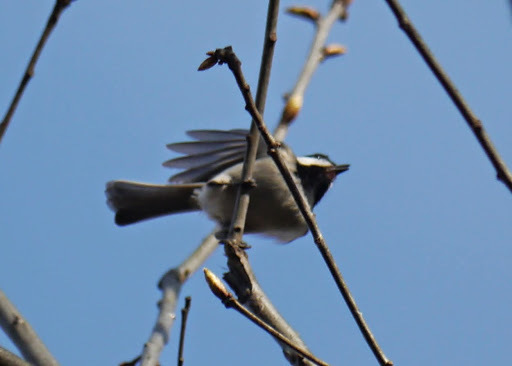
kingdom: Animalia
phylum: Chordata
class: Aves
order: Passeriformes
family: Paridae
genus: Poecile
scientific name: Poecile carolinensis
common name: Carolina chickadee
